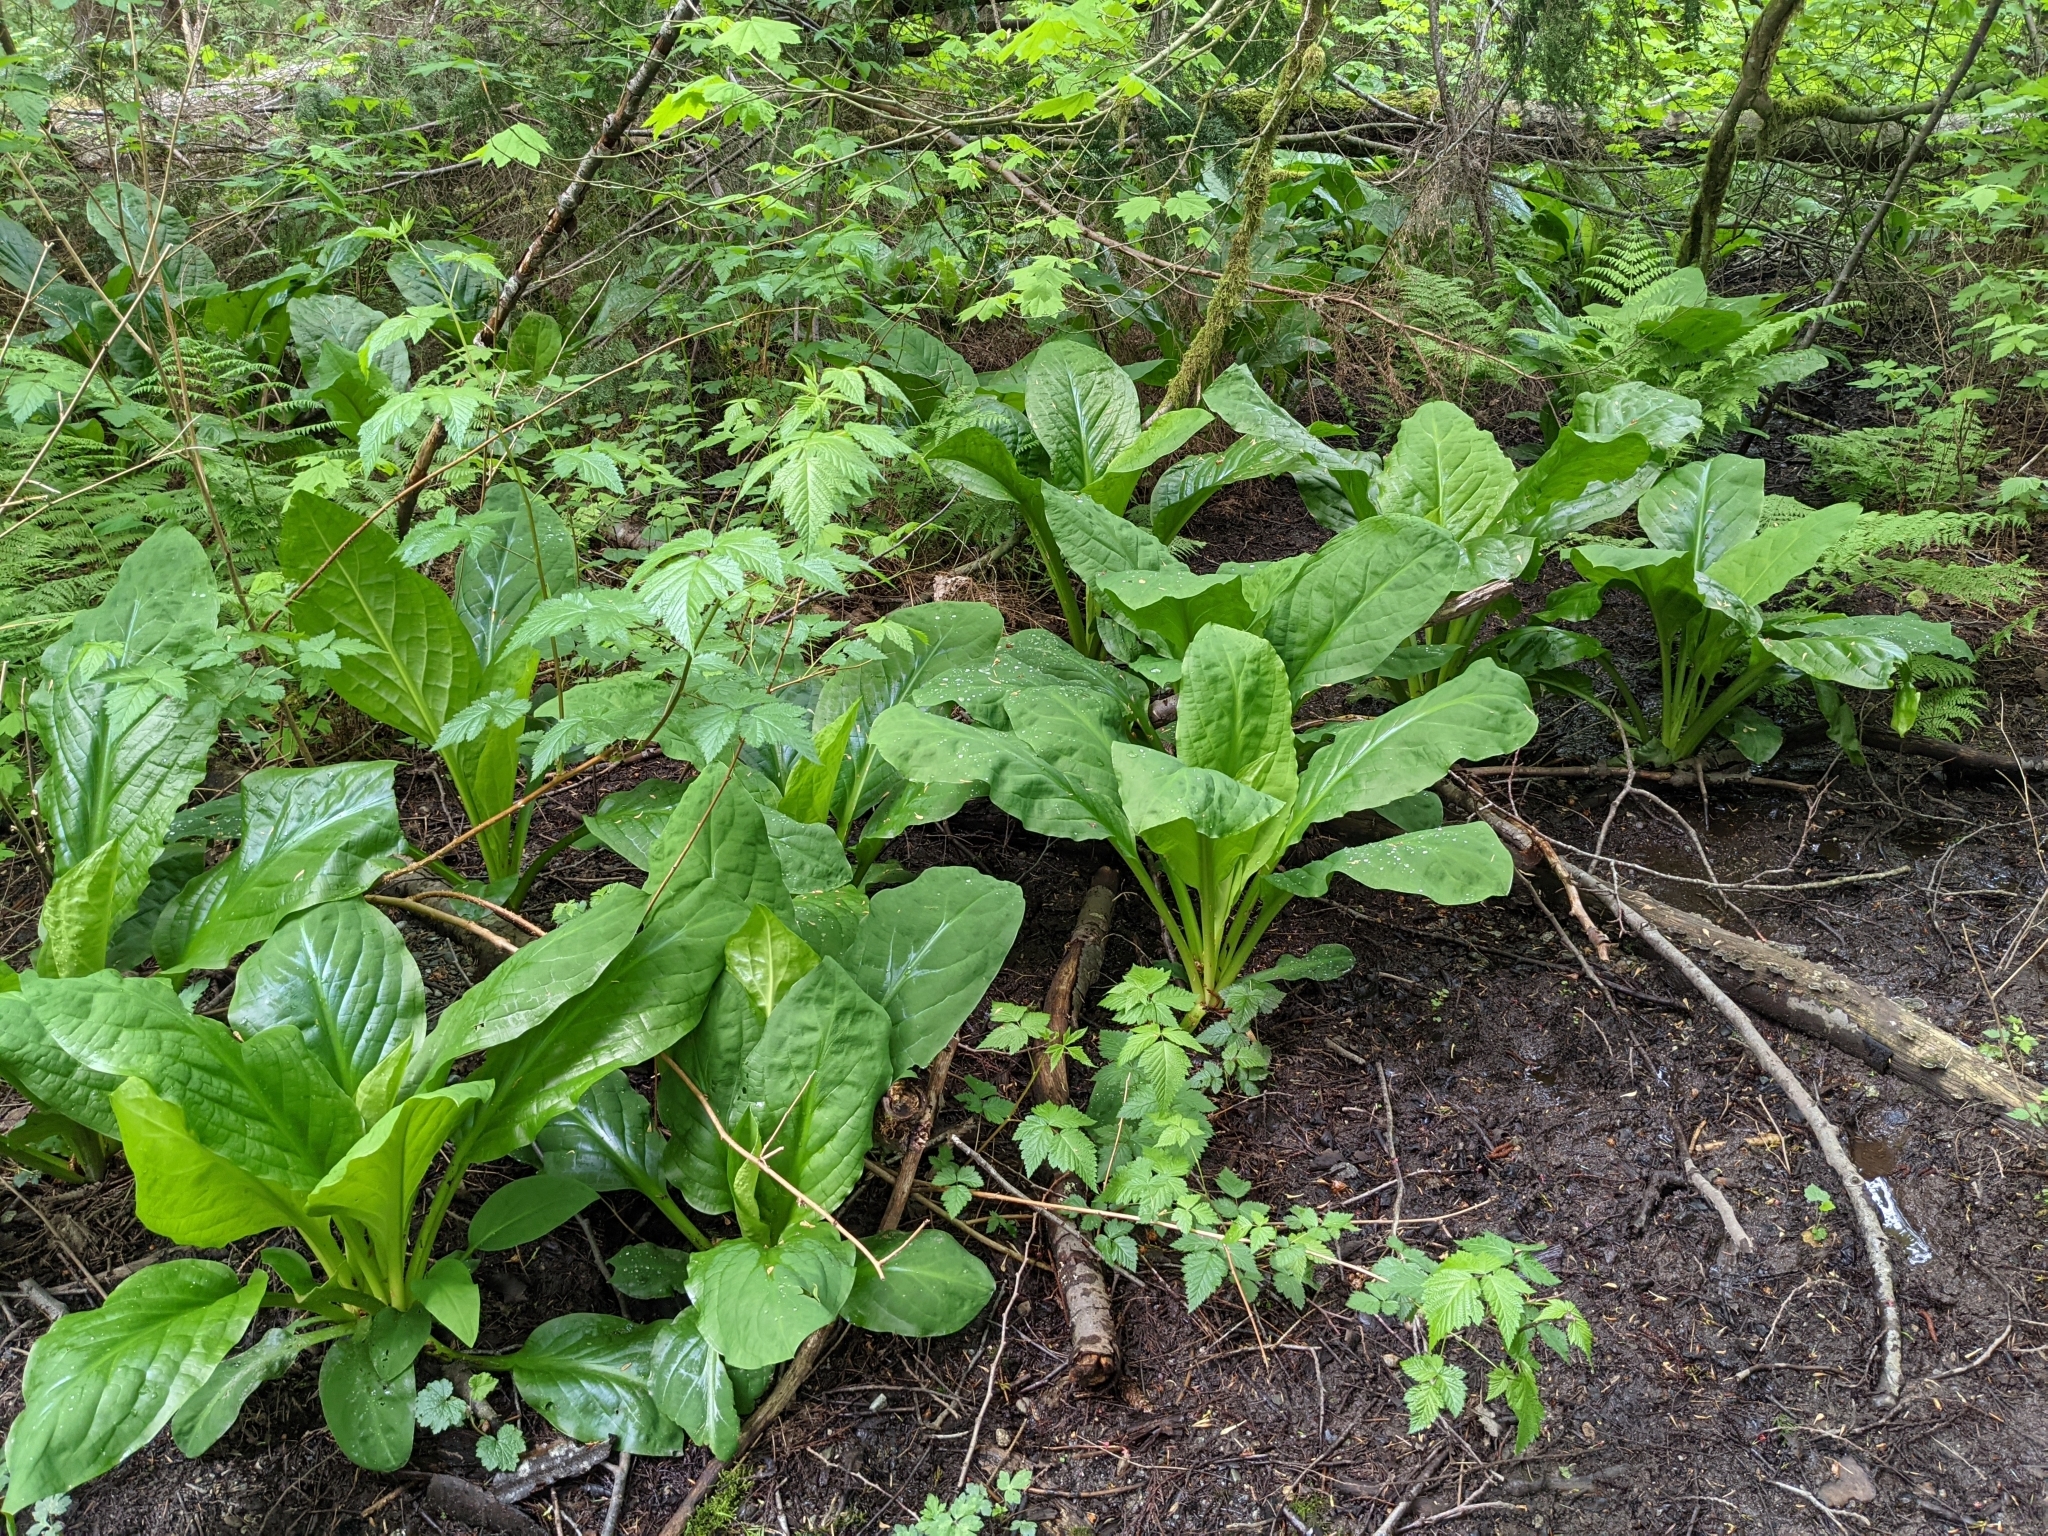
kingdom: Plantae
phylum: Tracheophyta
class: Liliopsida
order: Alismatales
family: Araceae
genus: Lysichiton
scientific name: Lysichiton americanus
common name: American skunk cabbage
